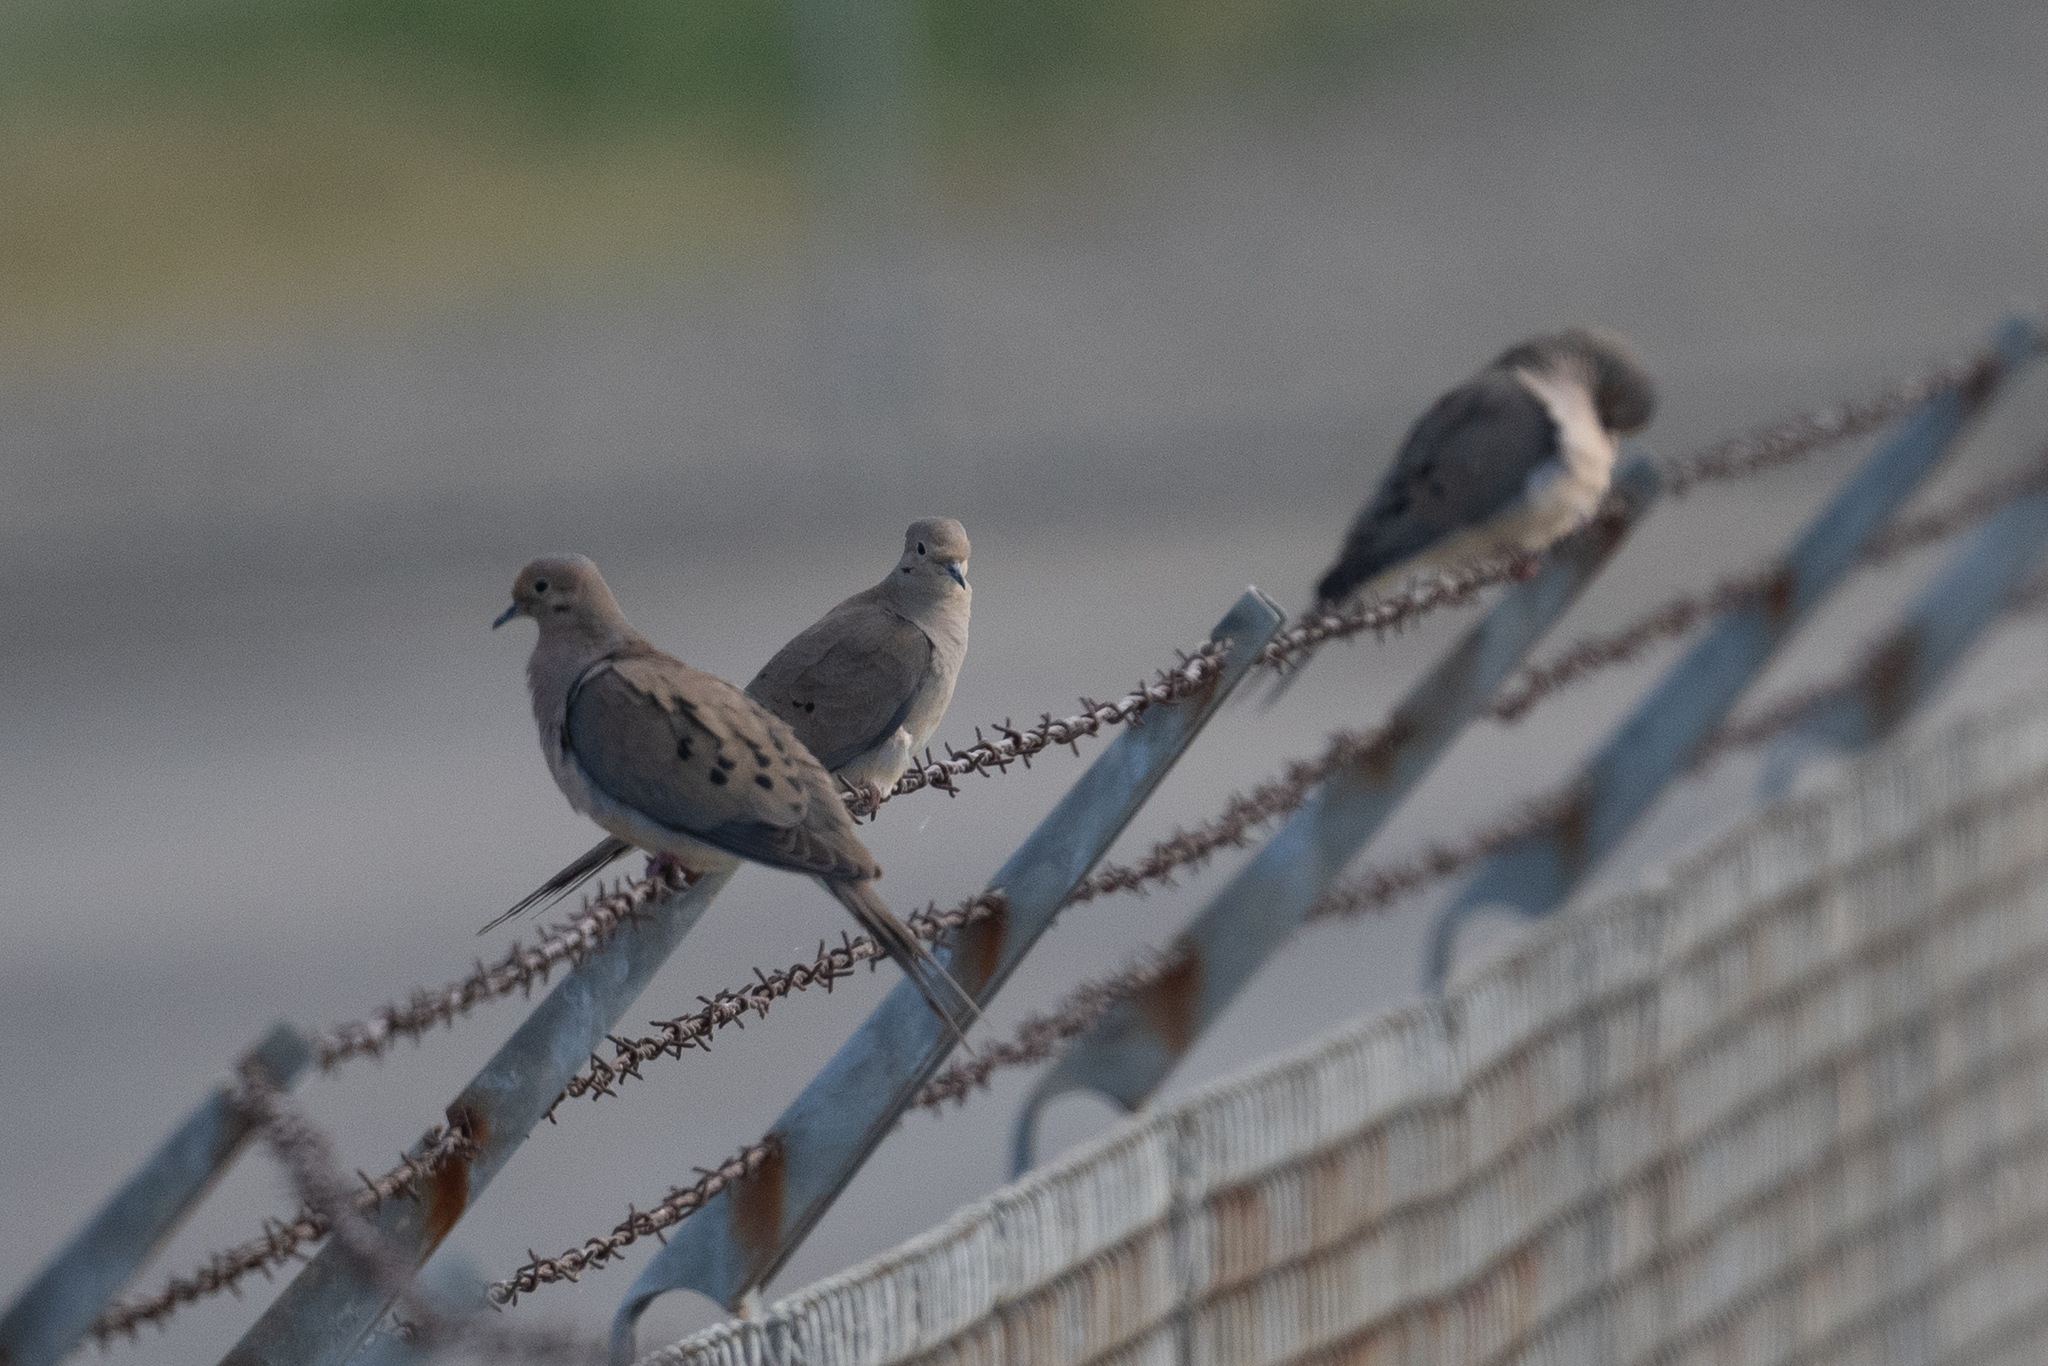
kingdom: Animalia
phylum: Chordata
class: Aves
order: Columbiformes
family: Columbidae
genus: Zenaida
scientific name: Zenaida macroura
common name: Mourning dove
